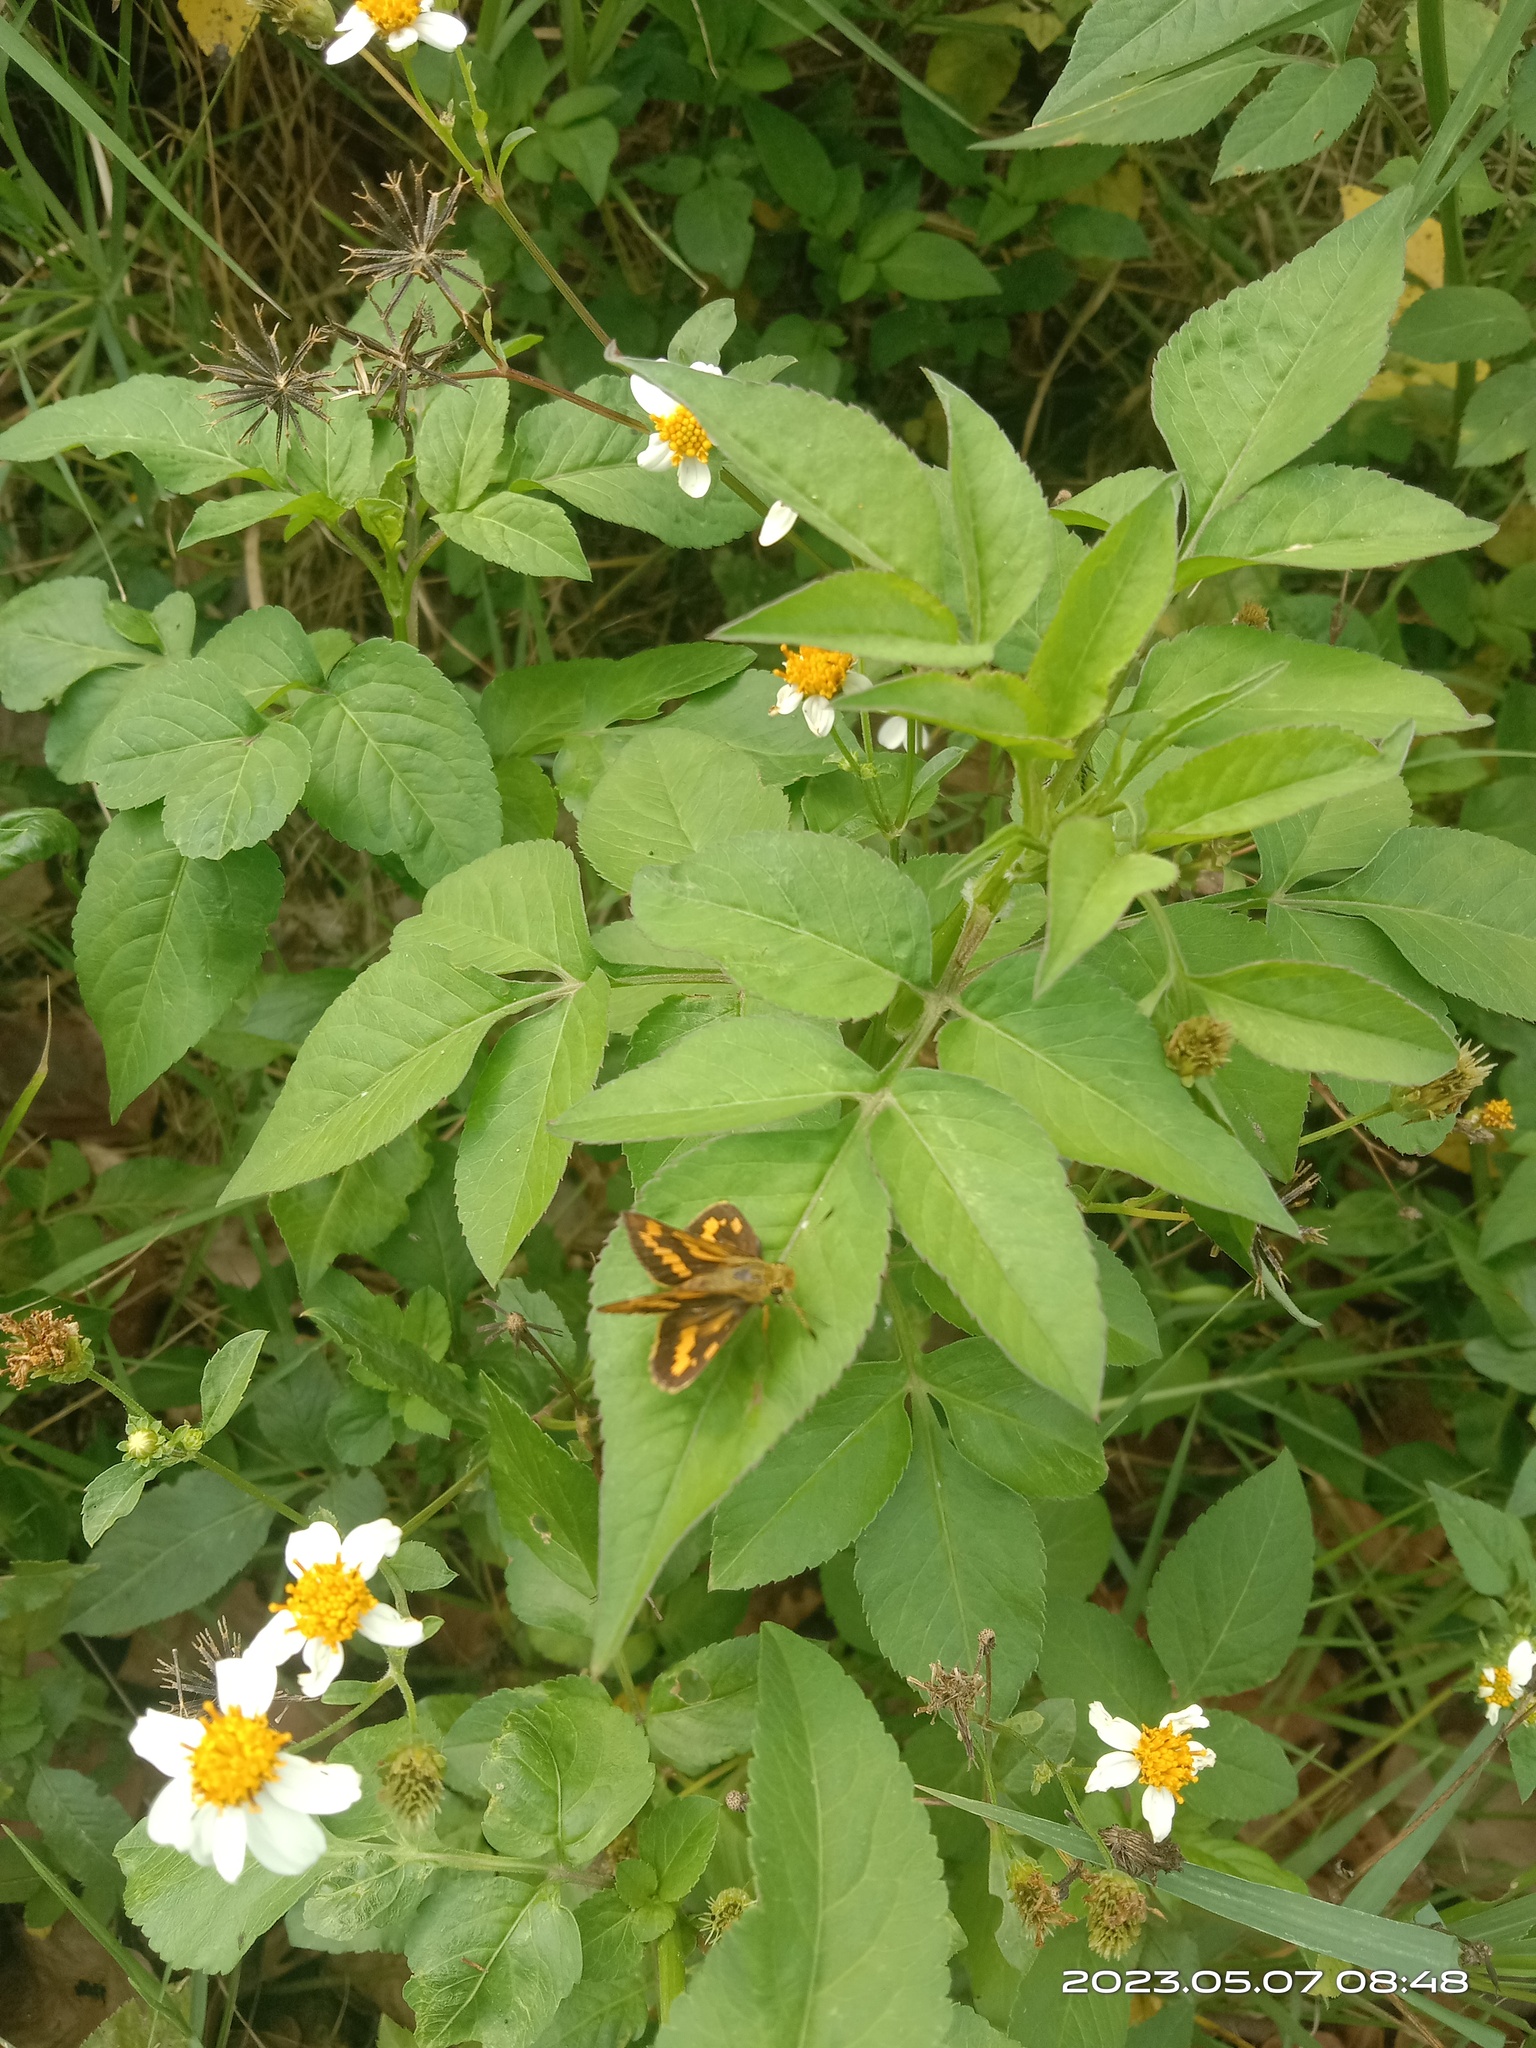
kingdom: Animalia
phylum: Arthropoda
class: Insecta
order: Lepidoptera
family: Hesperiidae
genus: Potanthus
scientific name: Potanthus confucius
